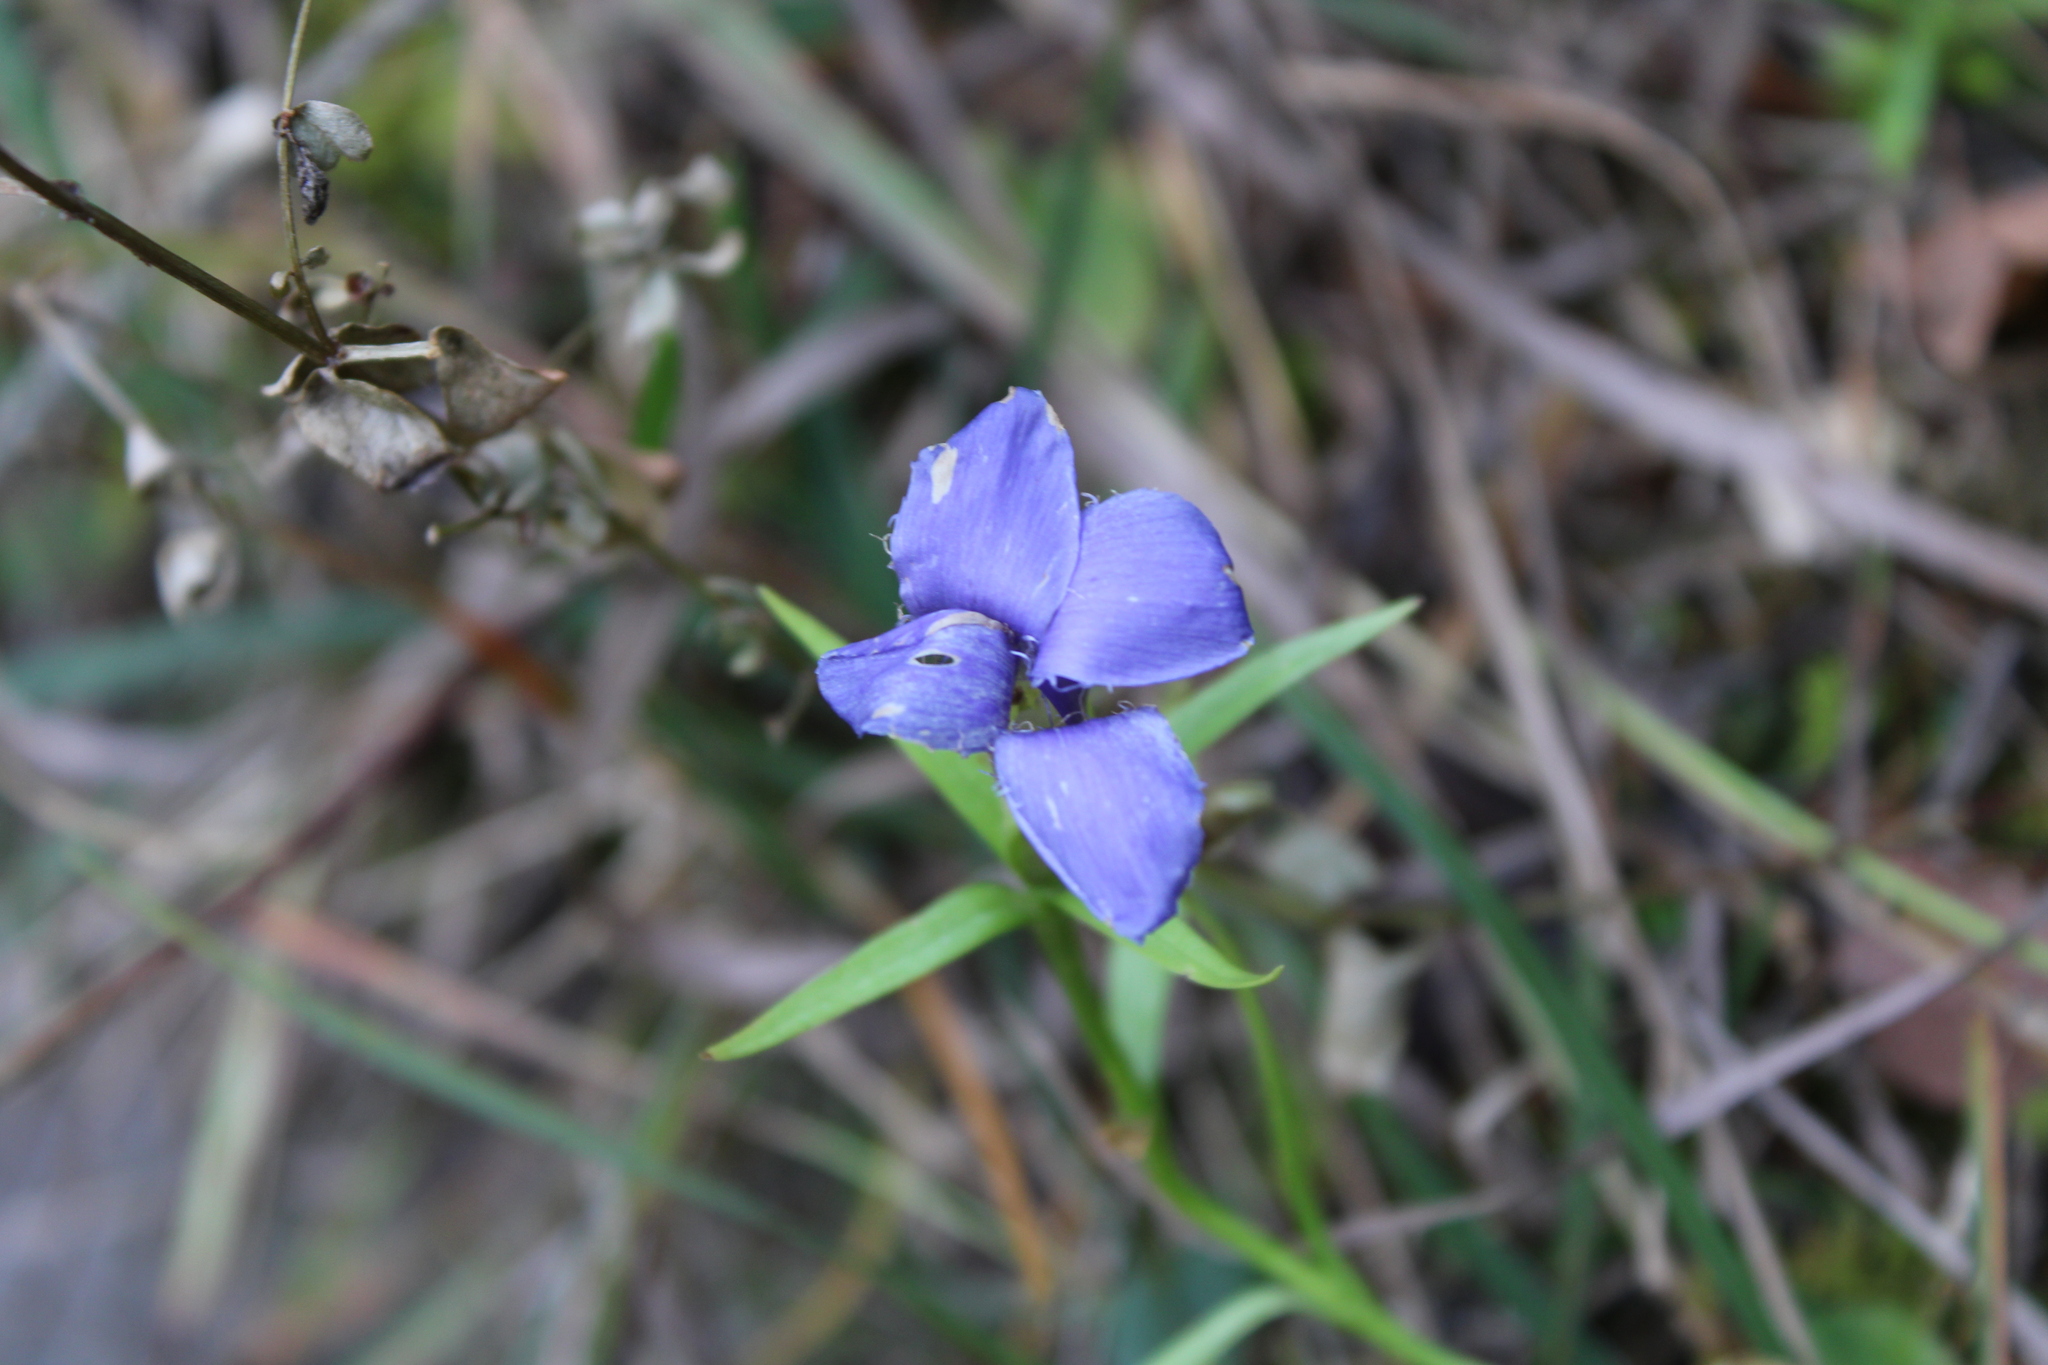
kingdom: Plantae
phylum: Tracheophyta
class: Magnoliopsida
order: Gentianales
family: Gentianaceae
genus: Gentianopsis
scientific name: Gentianopsis ciliata
